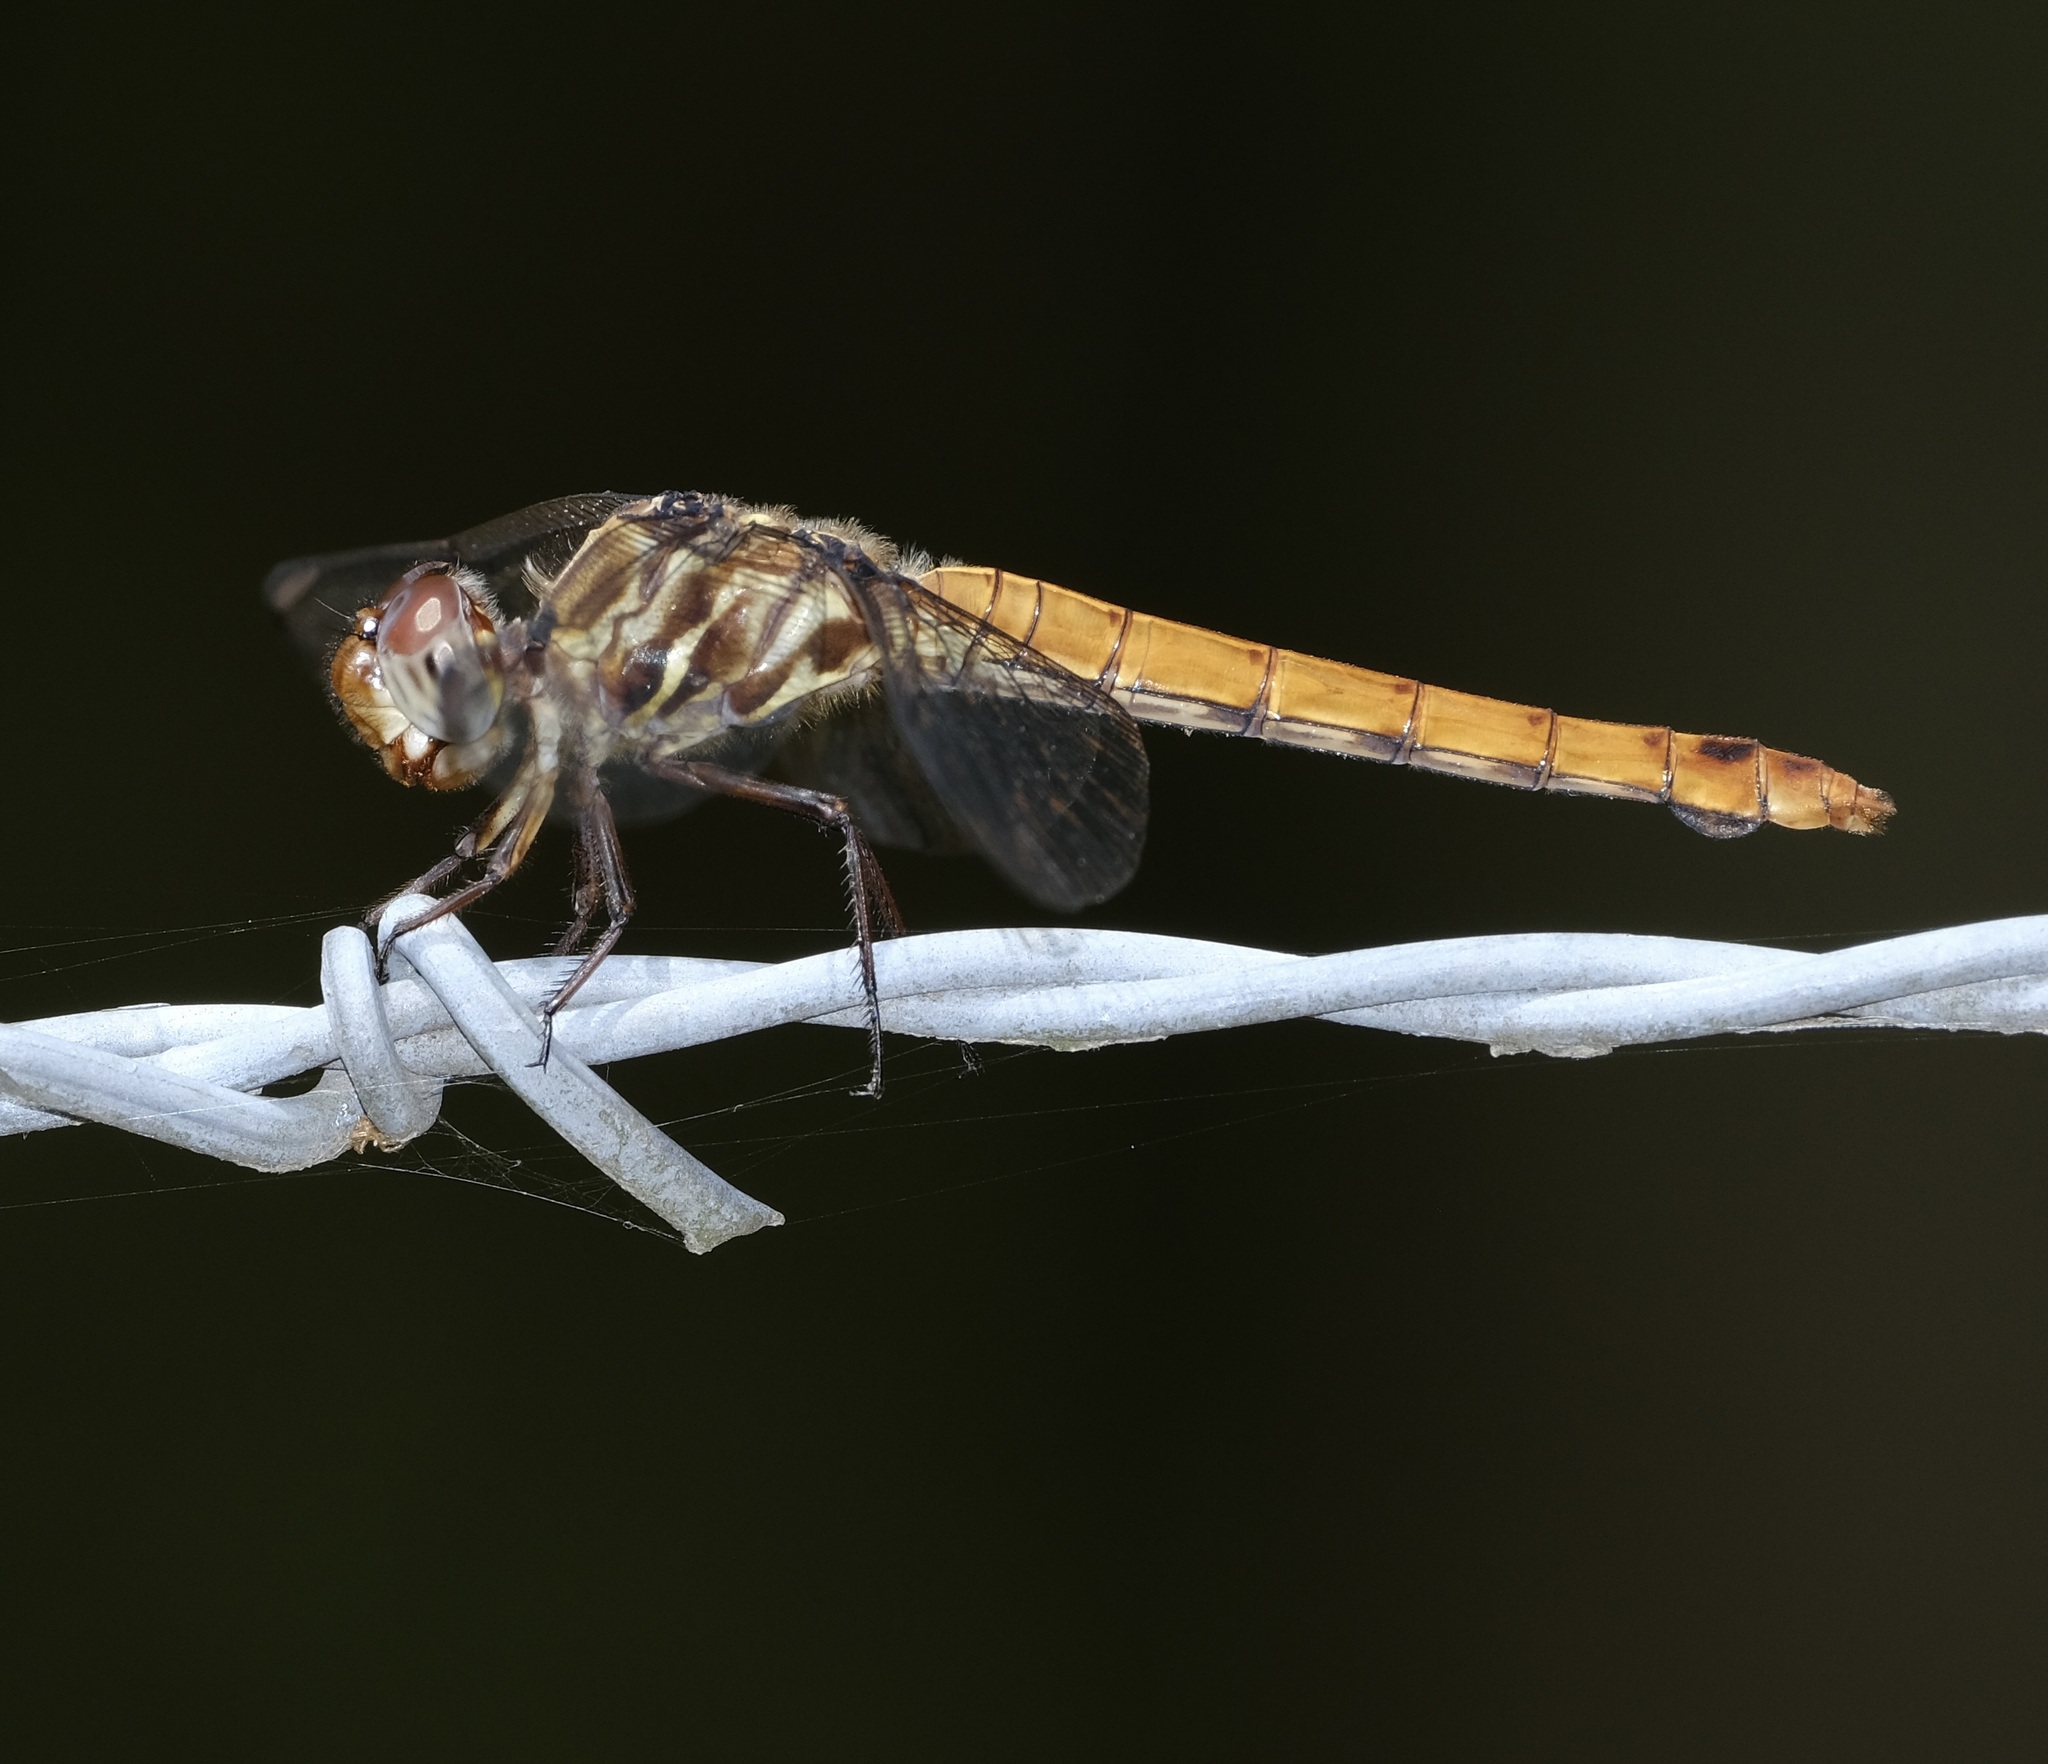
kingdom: Animalia
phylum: Arthropoda
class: Insecta
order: Odonata
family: Libellulidae
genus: Orthemis
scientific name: Orthemis ferruginea
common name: Roseate skimmer
